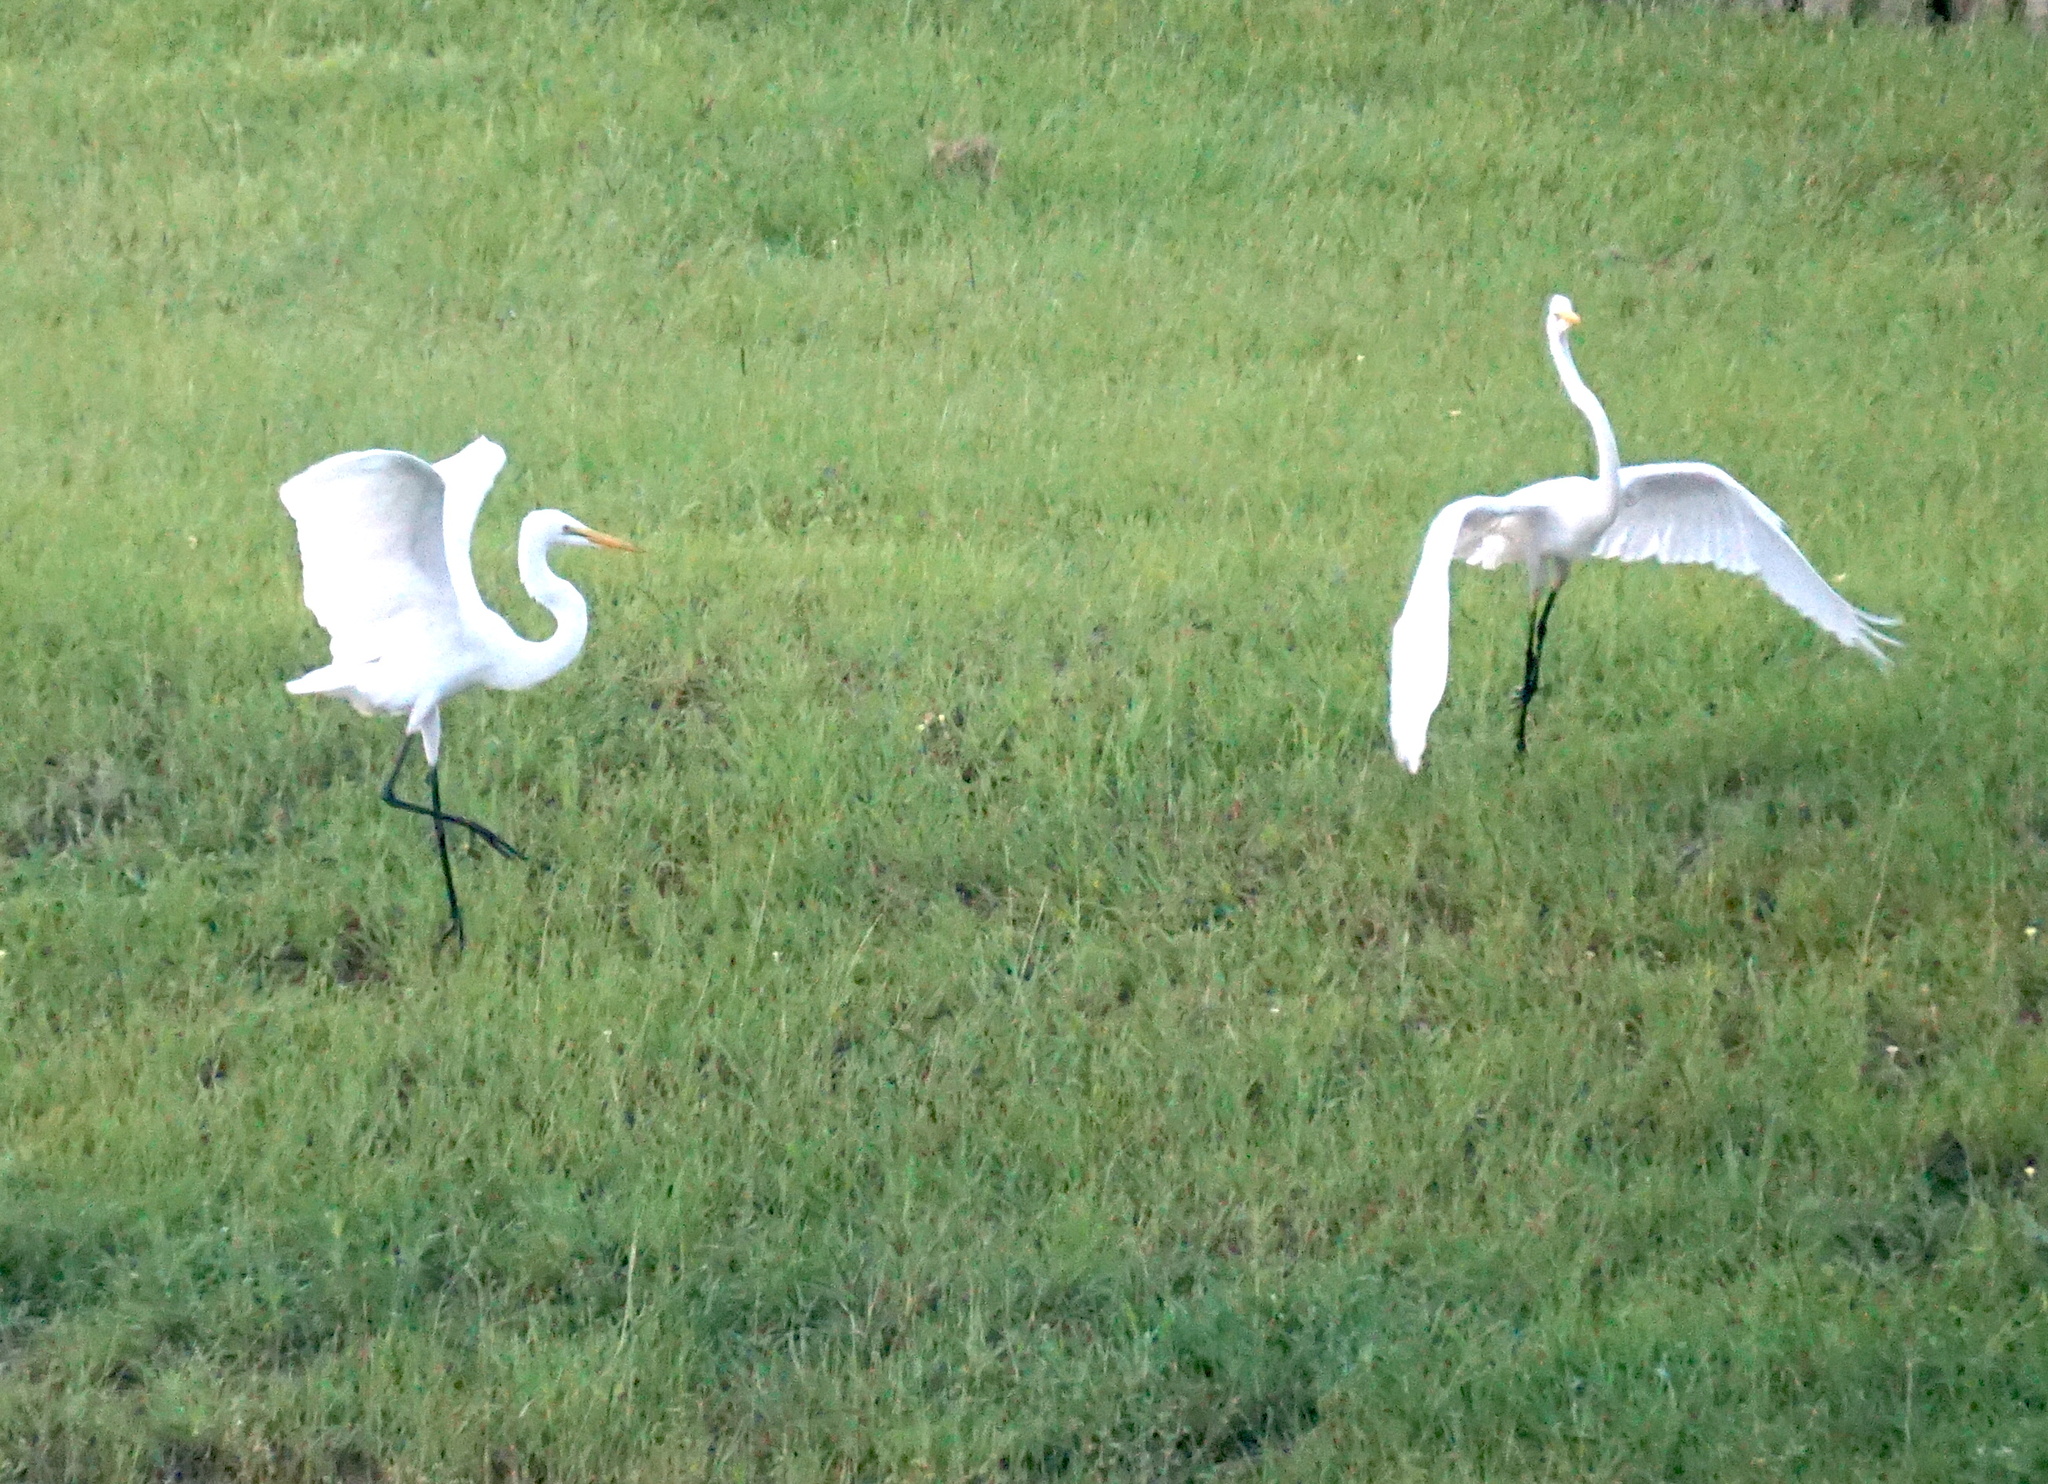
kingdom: Animalia
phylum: Chordata
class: Aves
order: Pelecaniformes
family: Ardeidae
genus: Ardea
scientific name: Ardea alba
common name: Great egret
